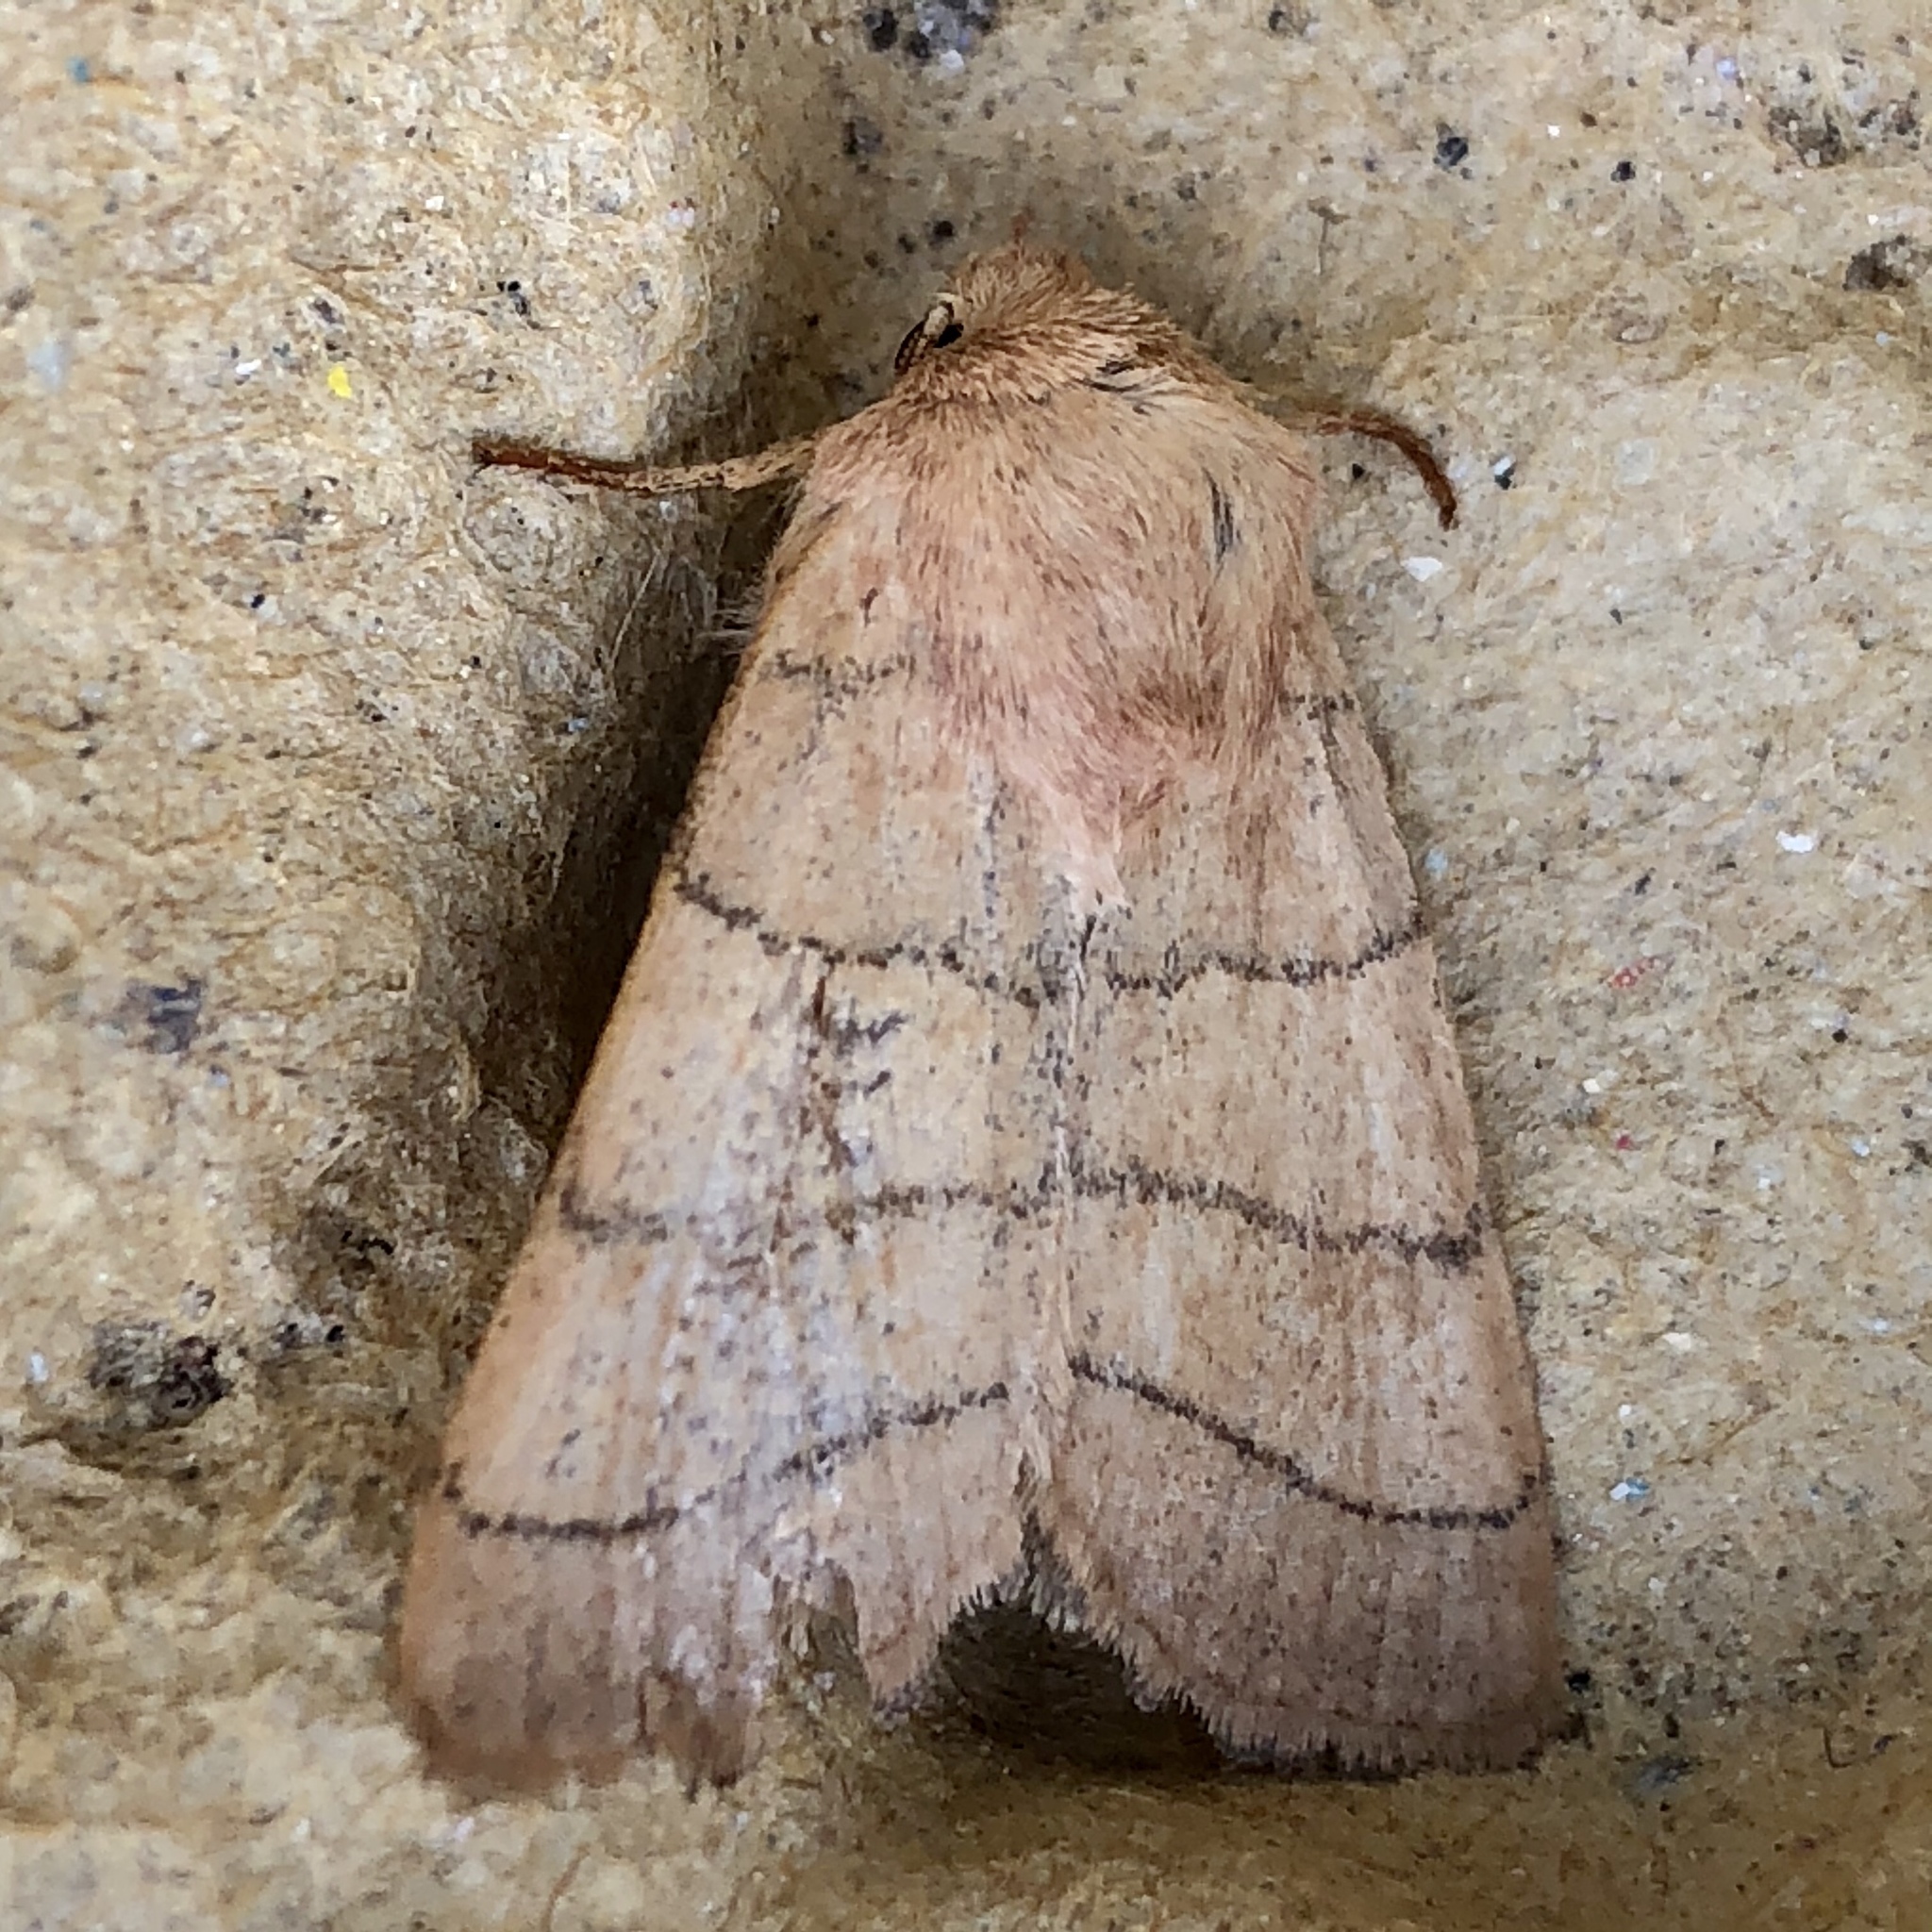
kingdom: Animalia
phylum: Arthropoda
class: Insecta
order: Lepidoptera
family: Noctuidae
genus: Charanyca
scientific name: Charanyca trigrammica
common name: Treble lines
